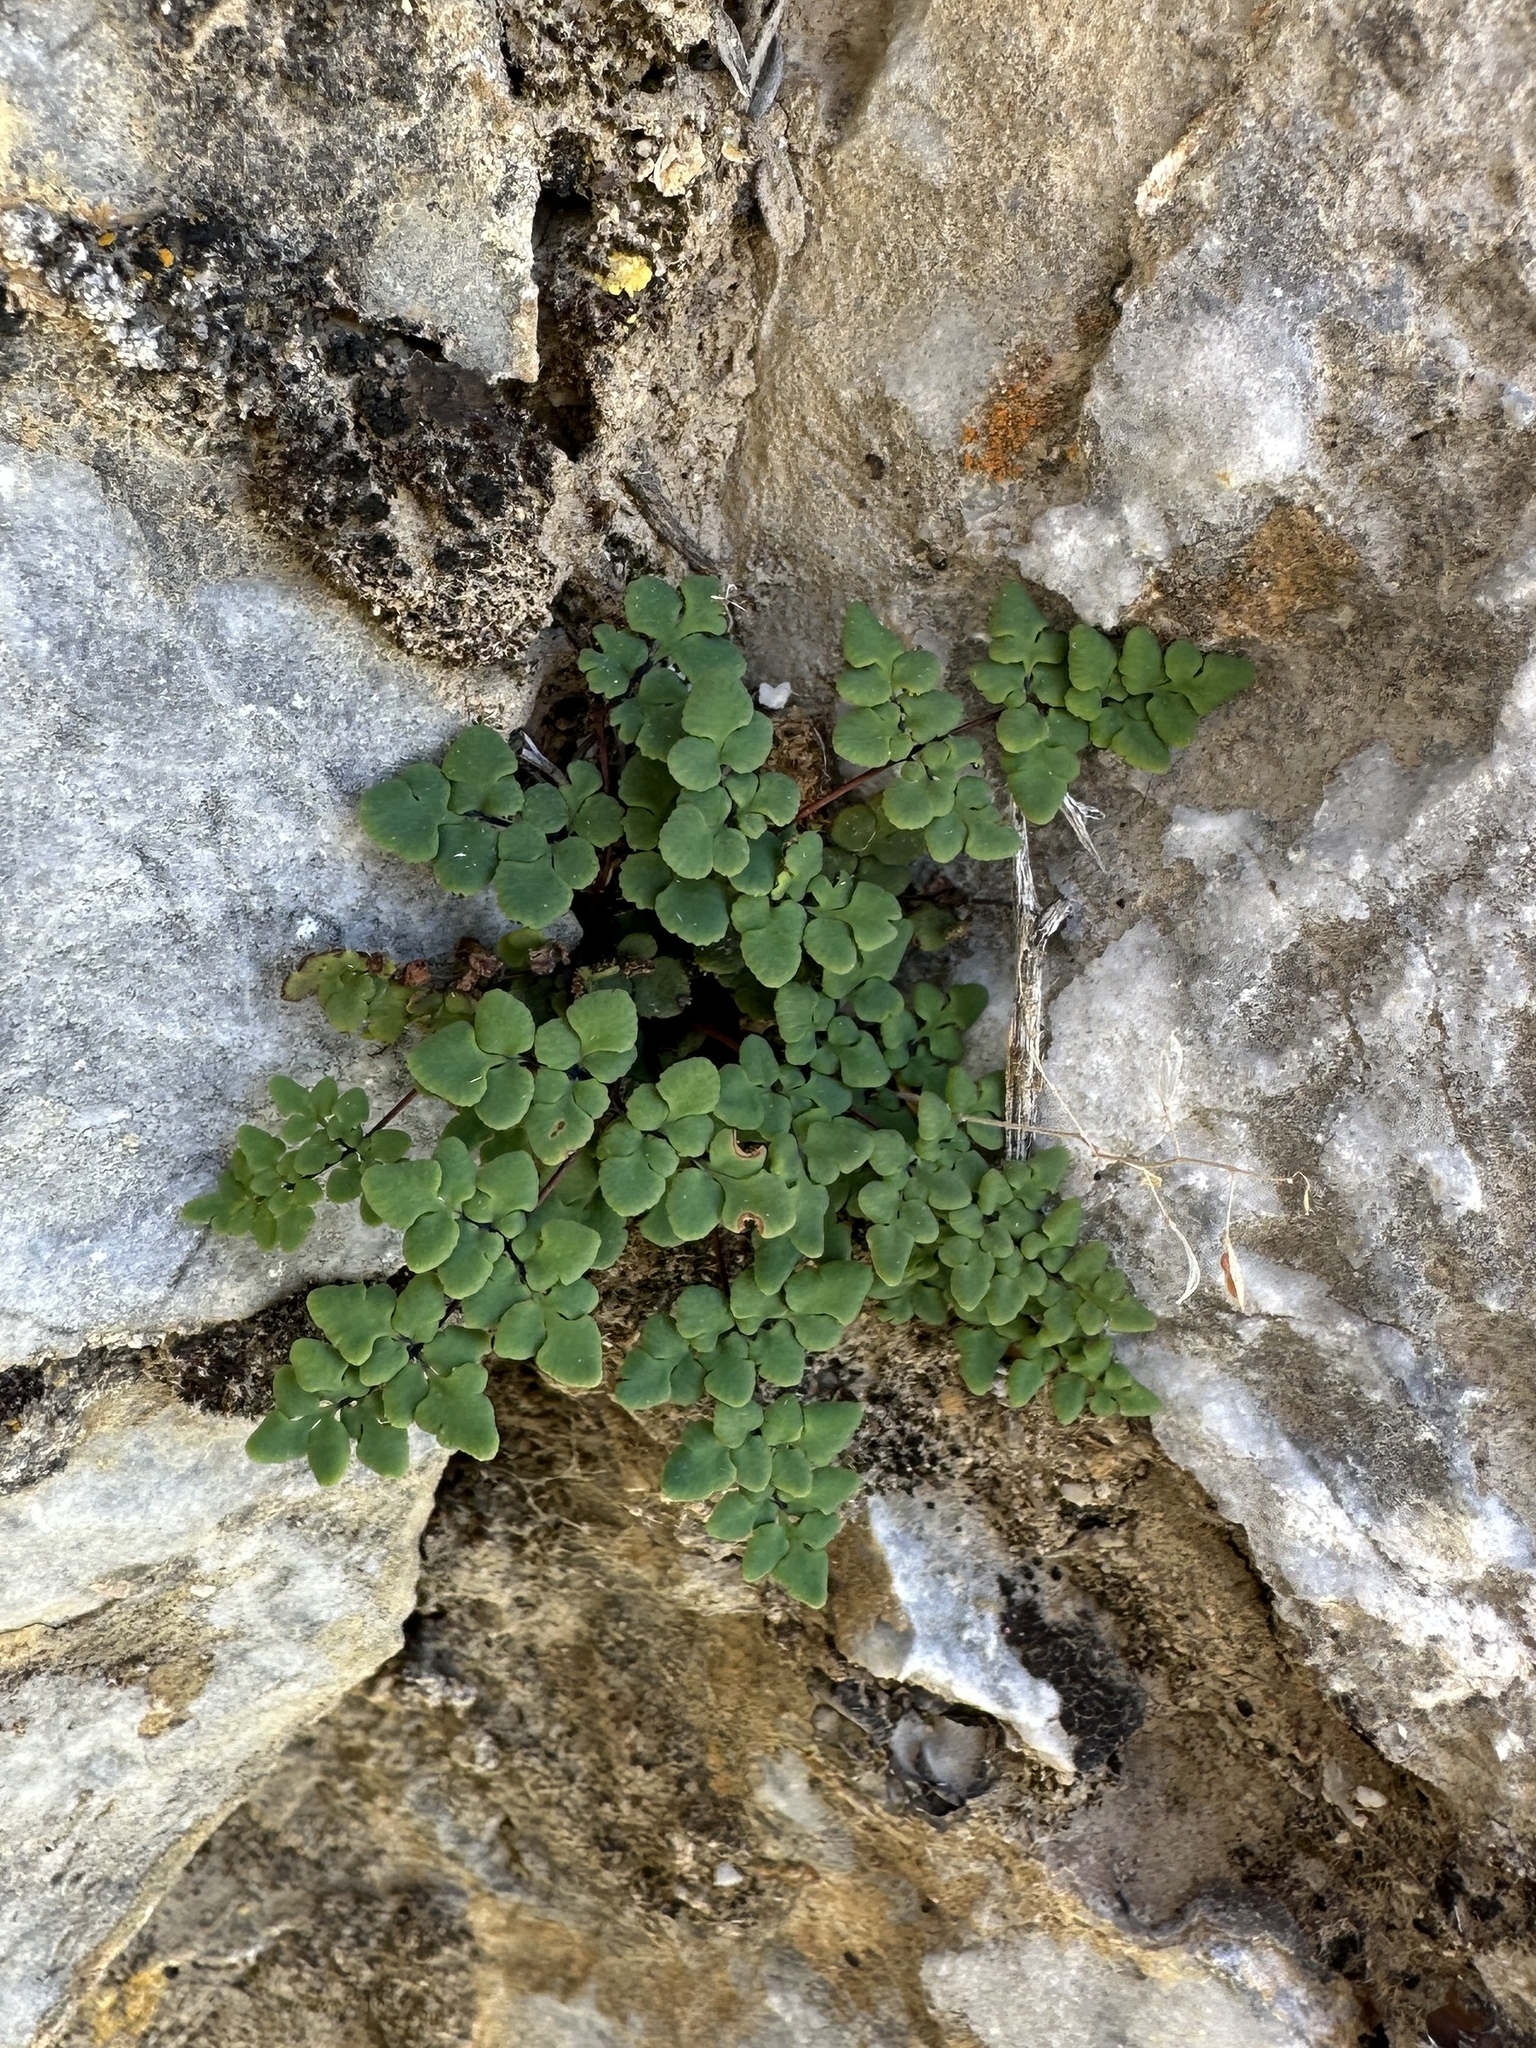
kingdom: Plantae
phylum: Tracheophyta
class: Polypodiopsida
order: Polypodiales
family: Pteridaceae
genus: Argyrochosma
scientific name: Argyrochosma jonesii
